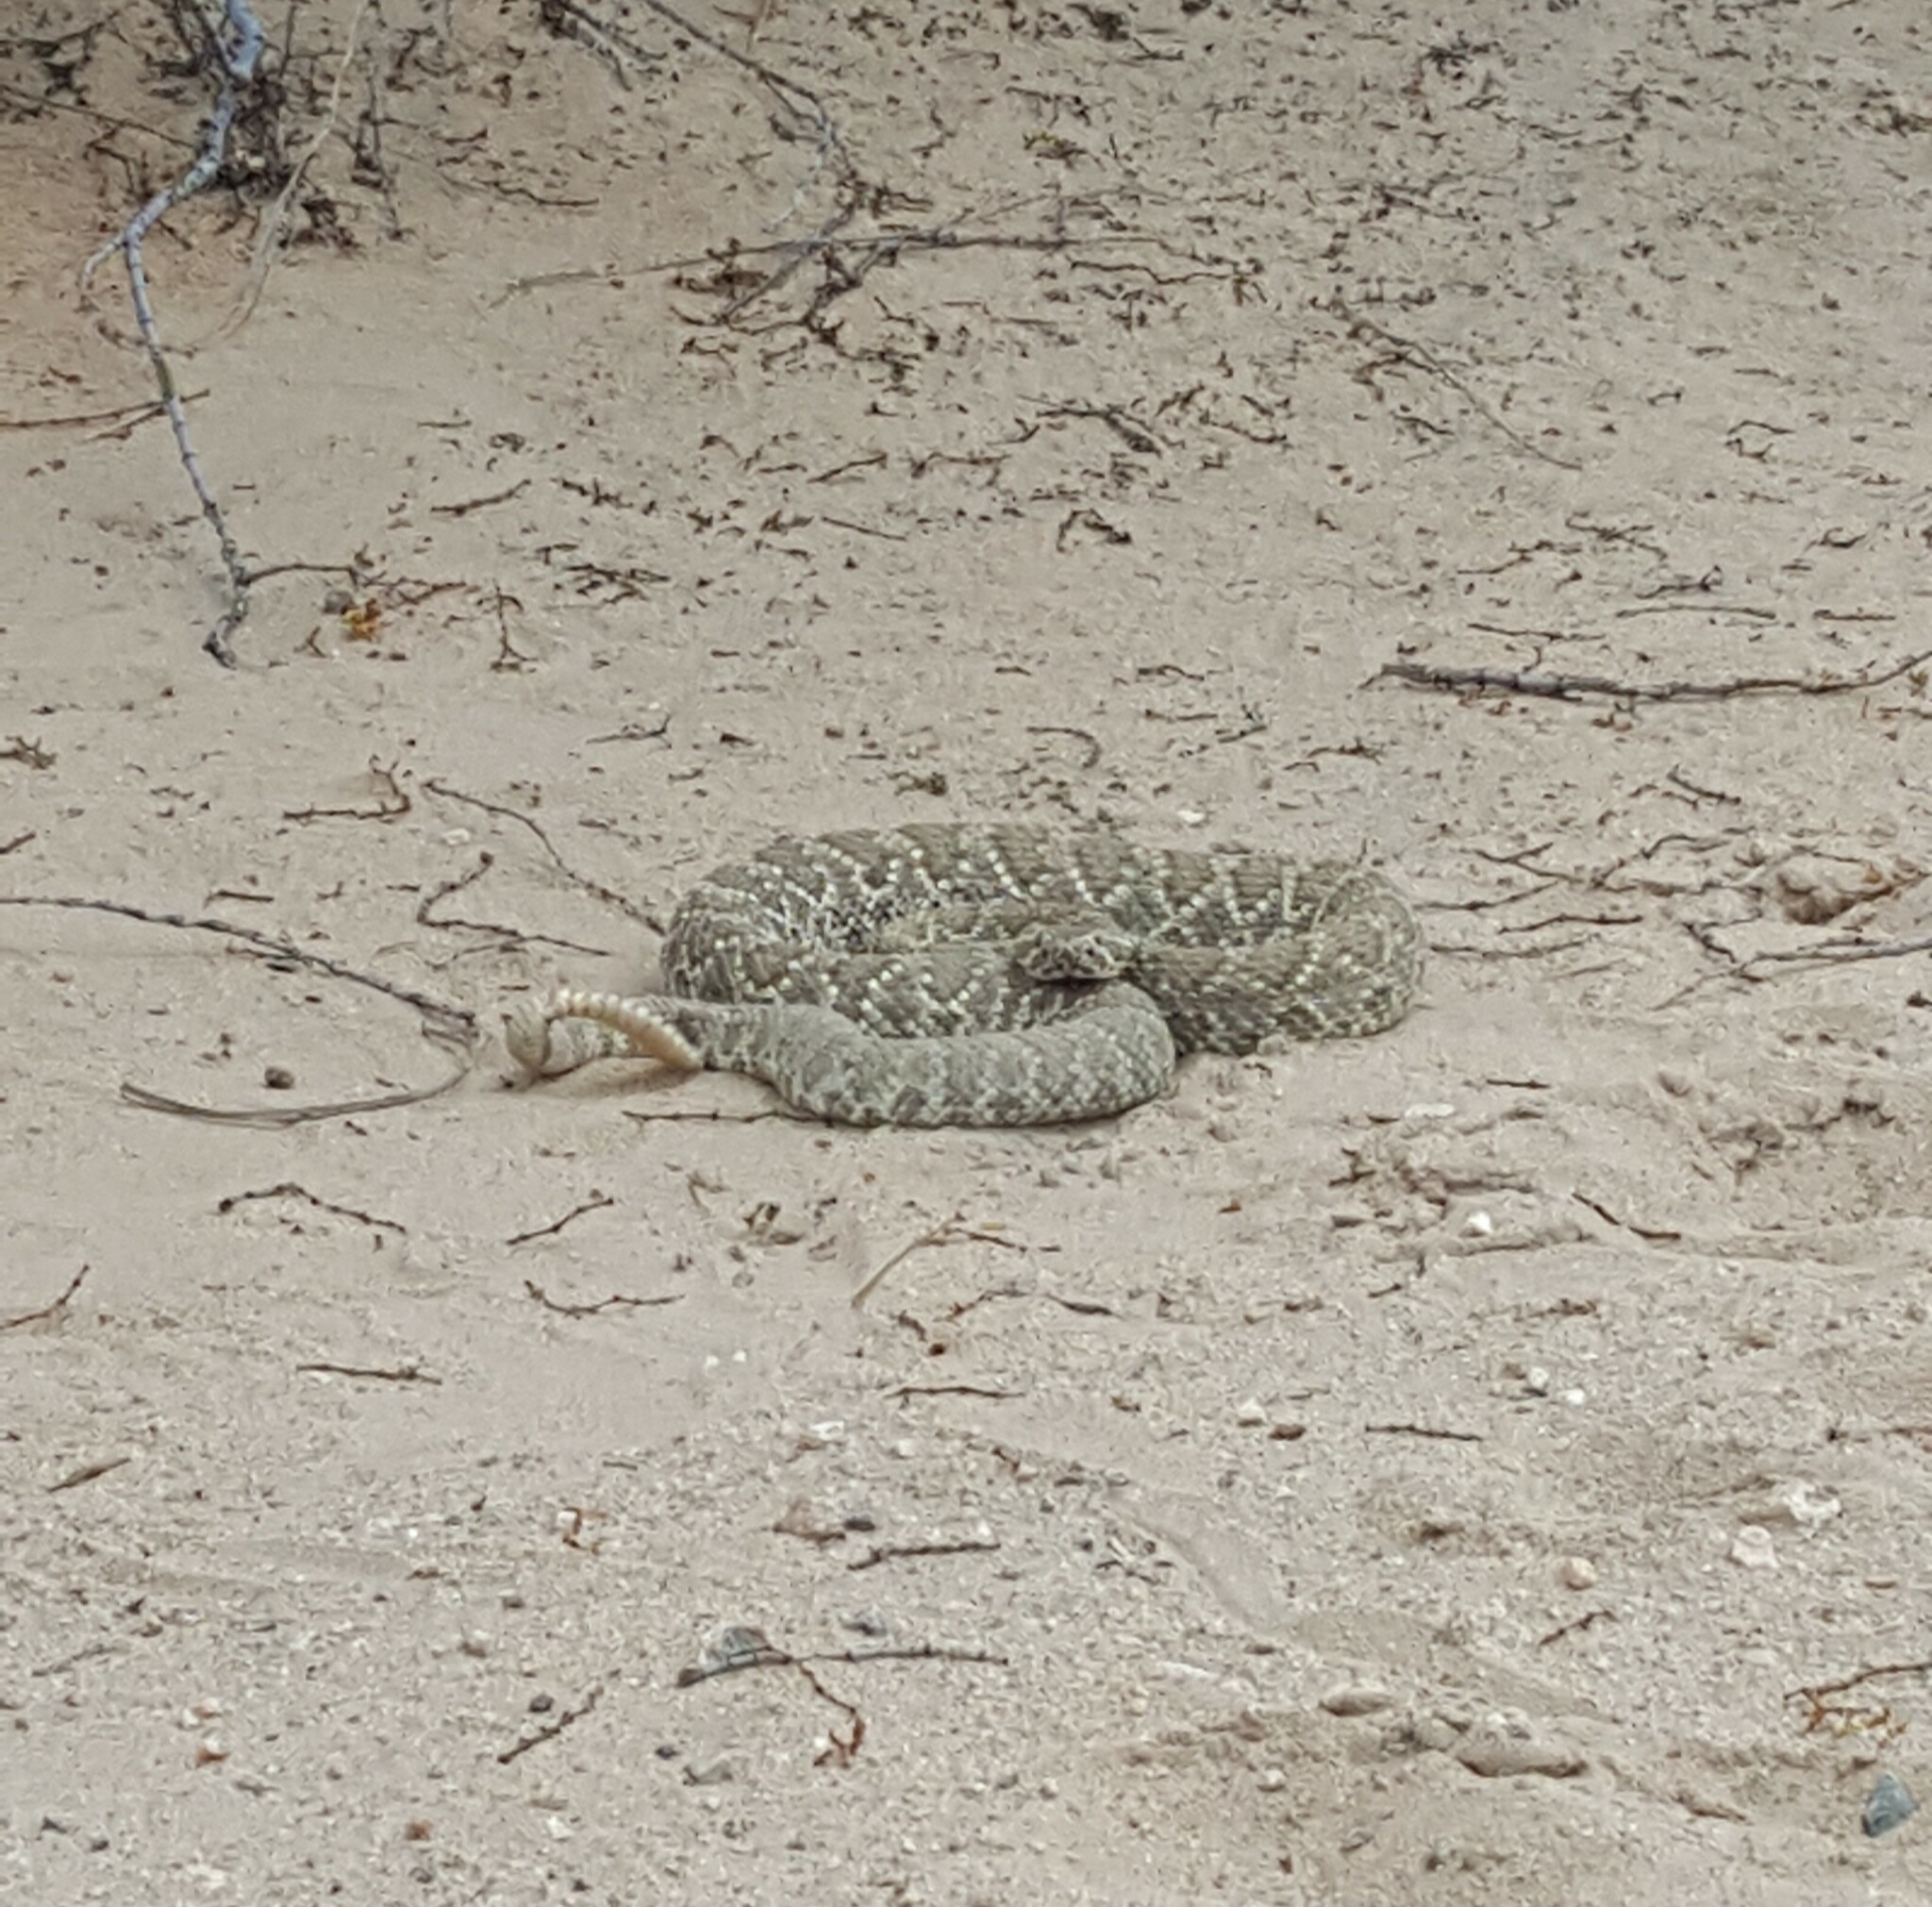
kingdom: Animalia
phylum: Chordata
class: Squamata
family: Viperidae
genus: Crotalus
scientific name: Crotalus scutulatus
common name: Scutulatus
